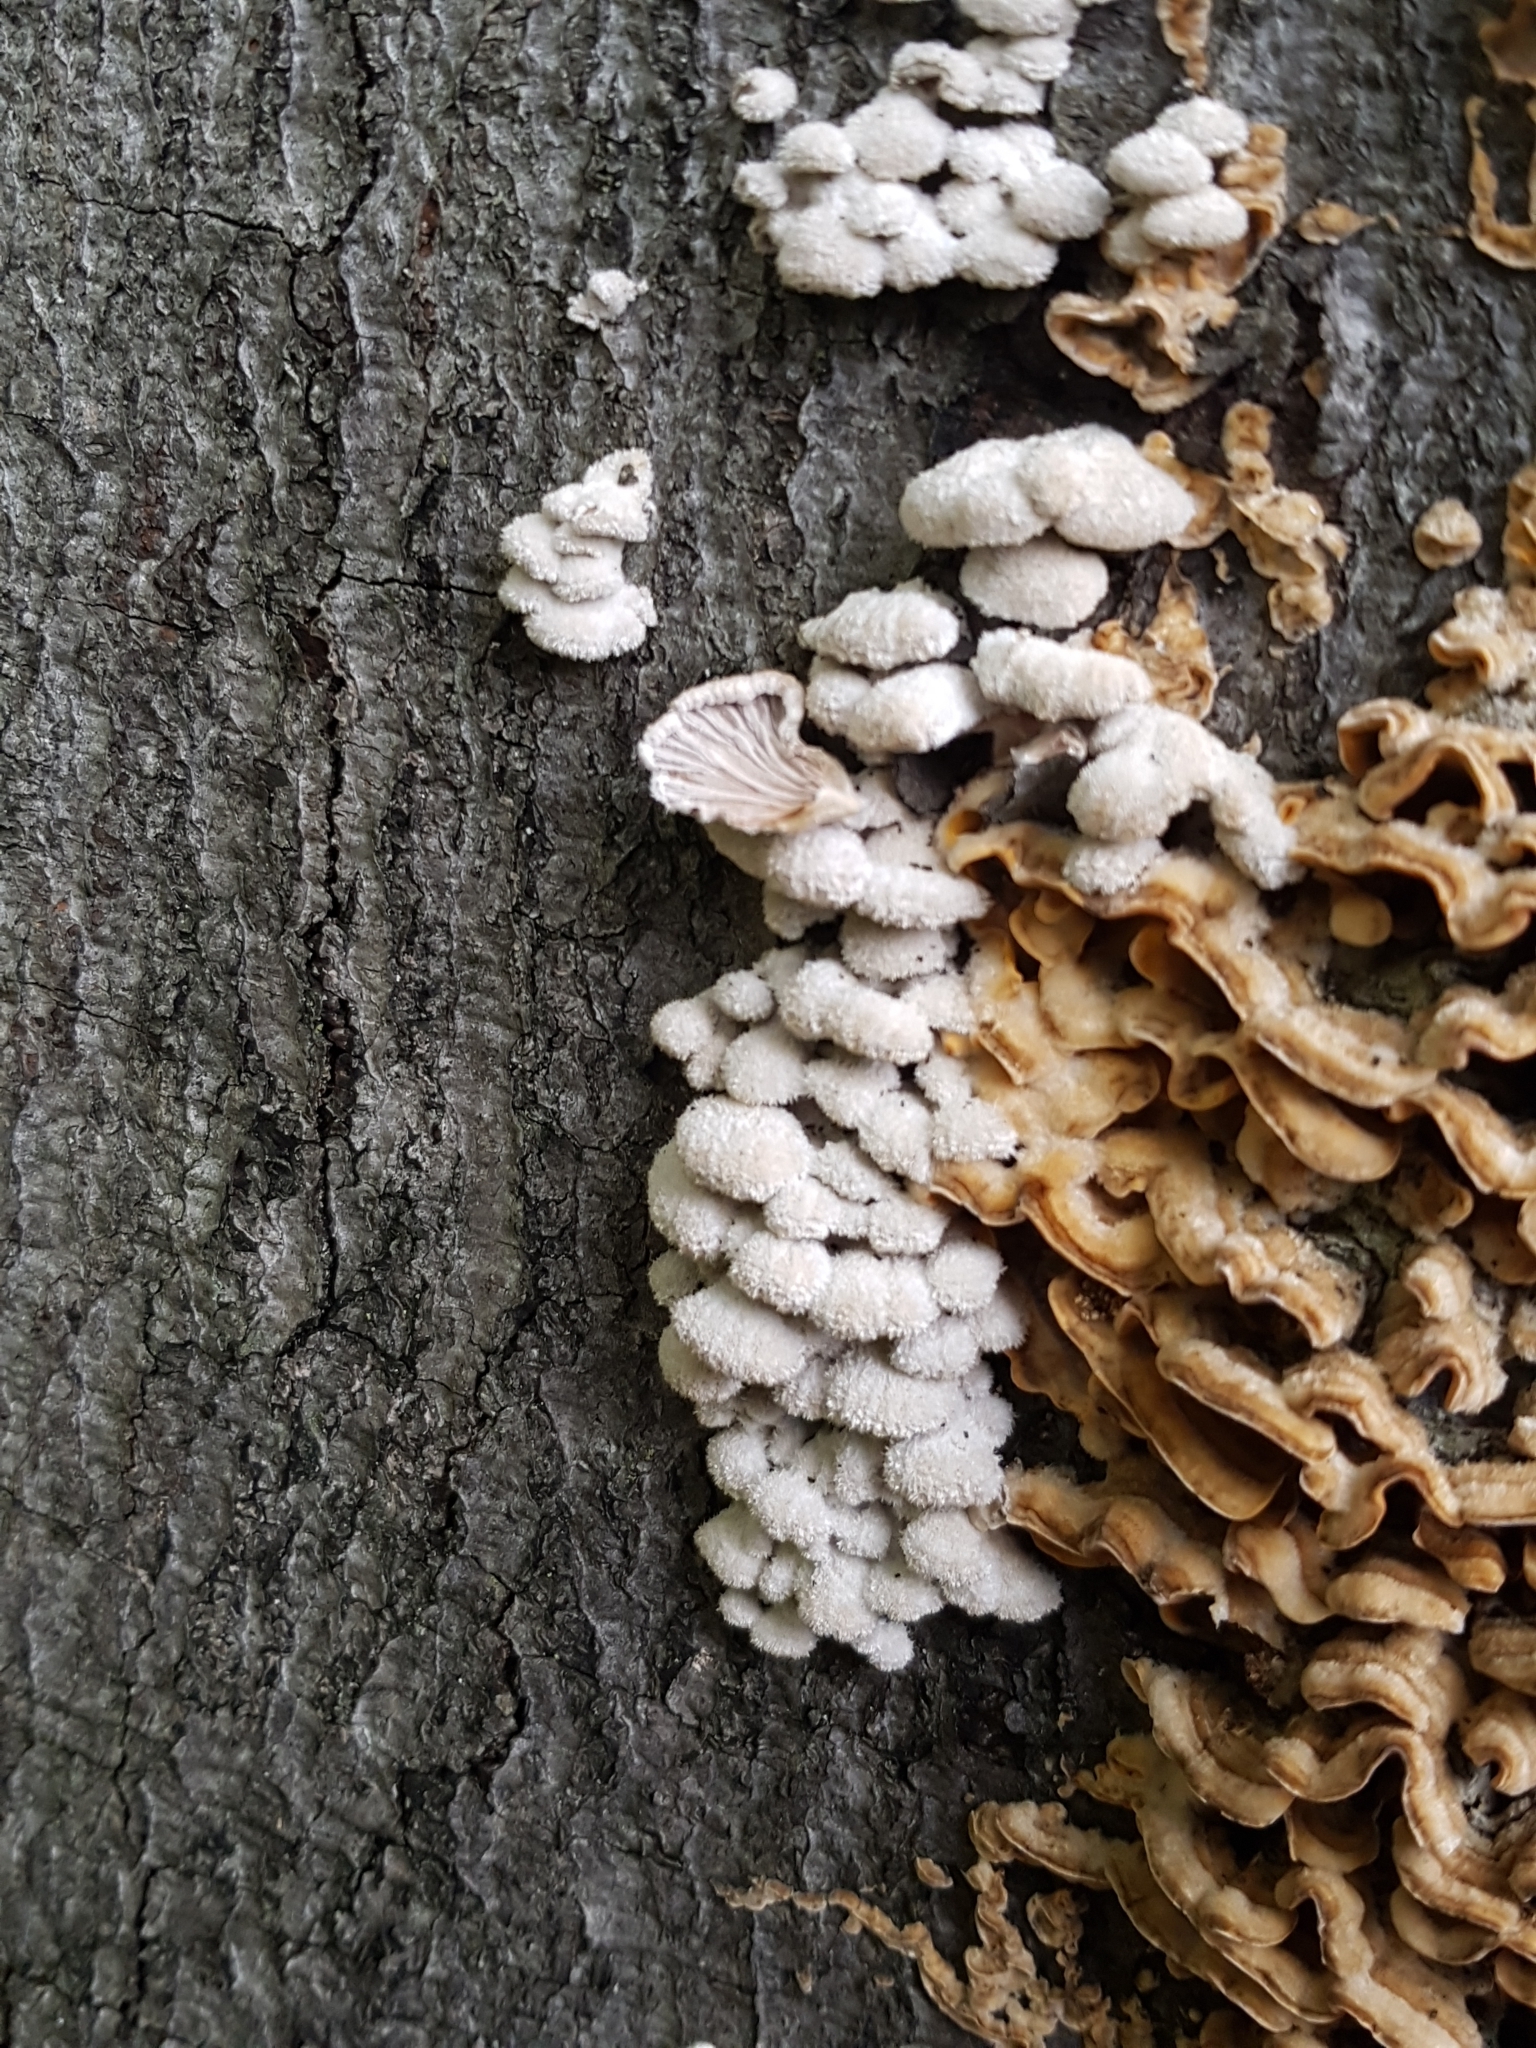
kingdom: Fungi
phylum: Basidiomycota
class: Agaricomycetes
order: Agaricales
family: Schizophyllaceae
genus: Schizophyllum
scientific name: Schizophyllum commune
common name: Common porecrust
